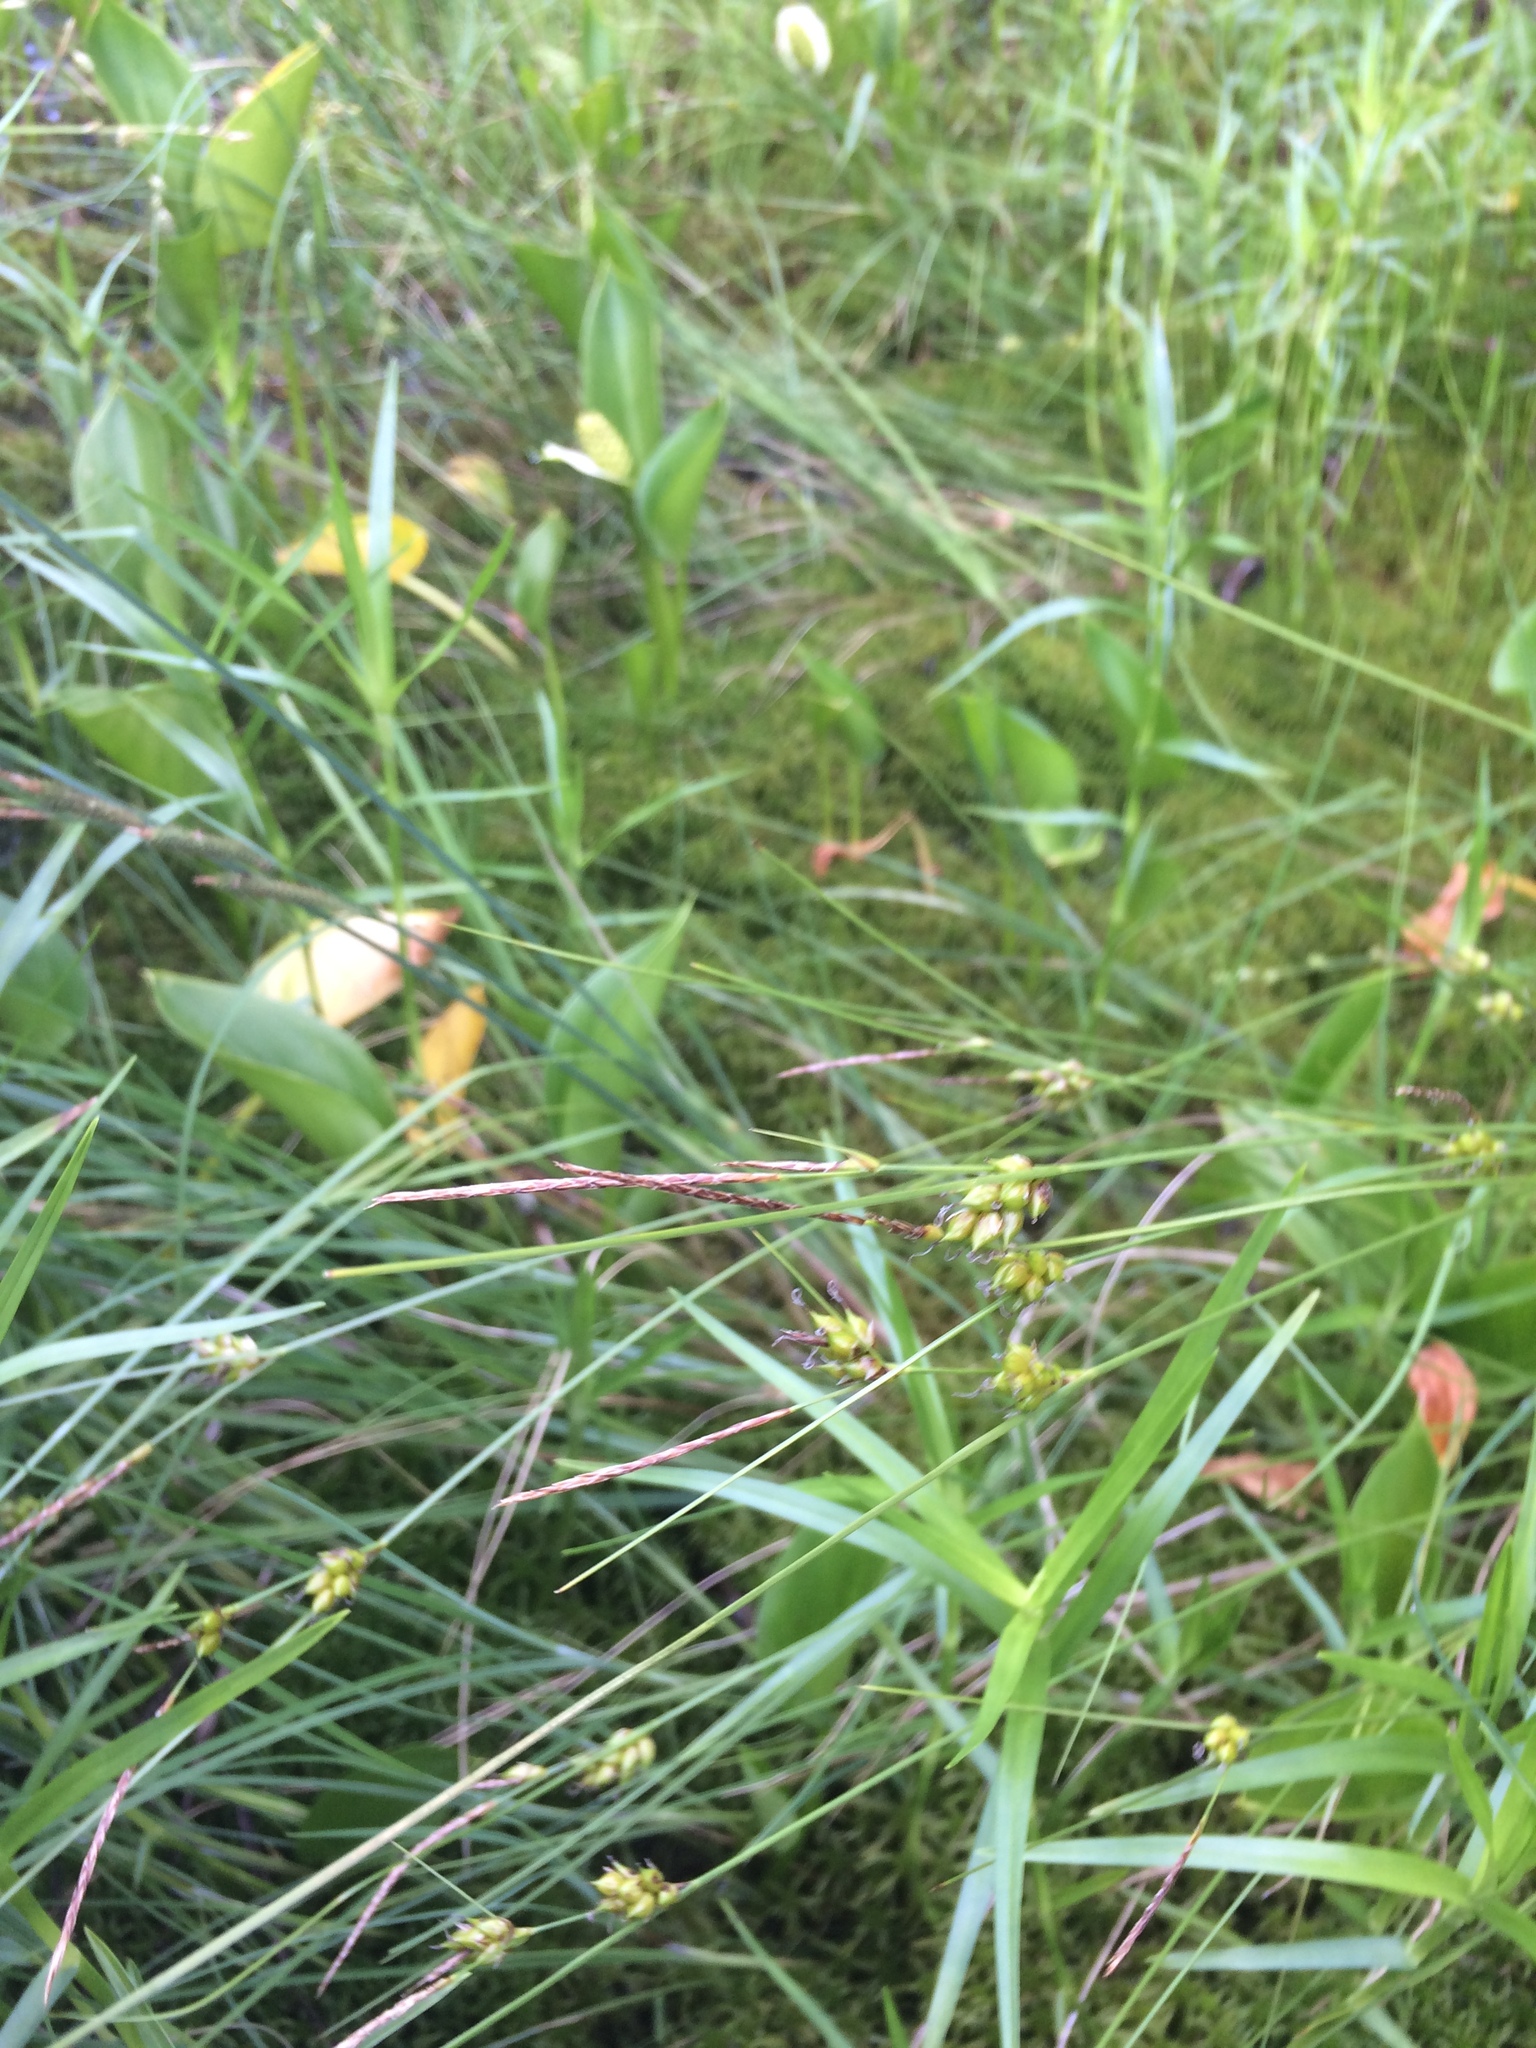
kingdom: Plantae
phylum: Tracheophyta
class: Liliopsida
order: Alismatales
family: Araceae
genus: Calla
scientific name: Calla palustris
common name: Bog arum
